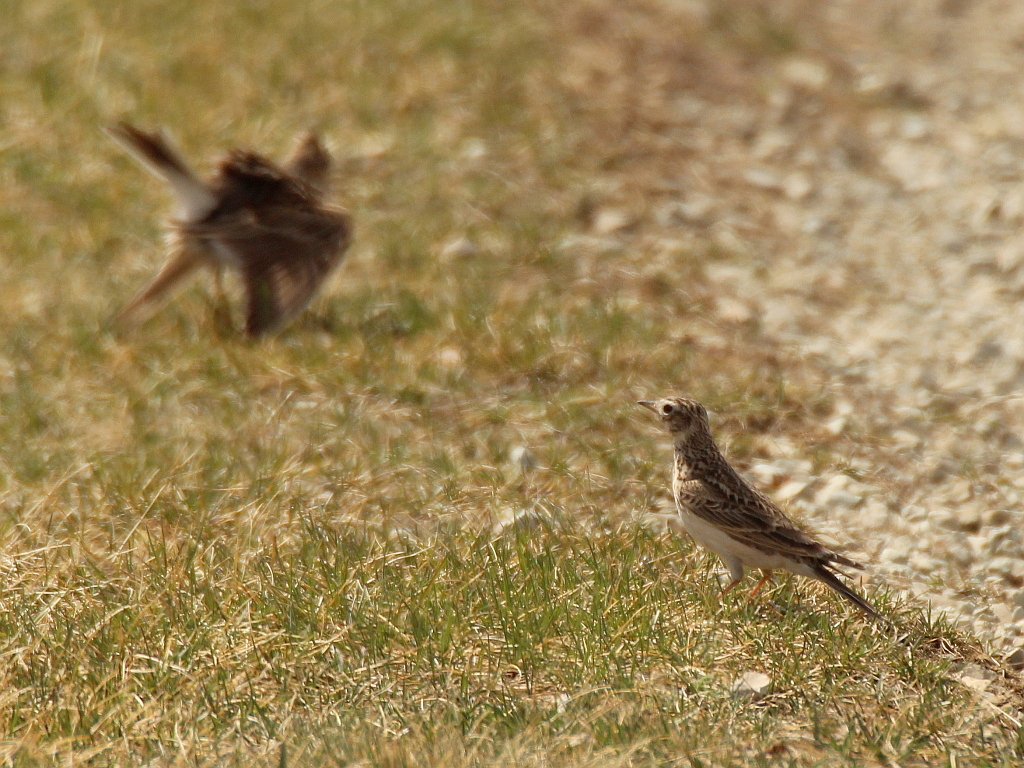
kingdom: Animalia
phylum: Chordata
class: Aves
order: Passeriformes
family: Alaudidae
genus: Alauda
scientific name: Alauda arvensis
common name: Eurasian skylark
